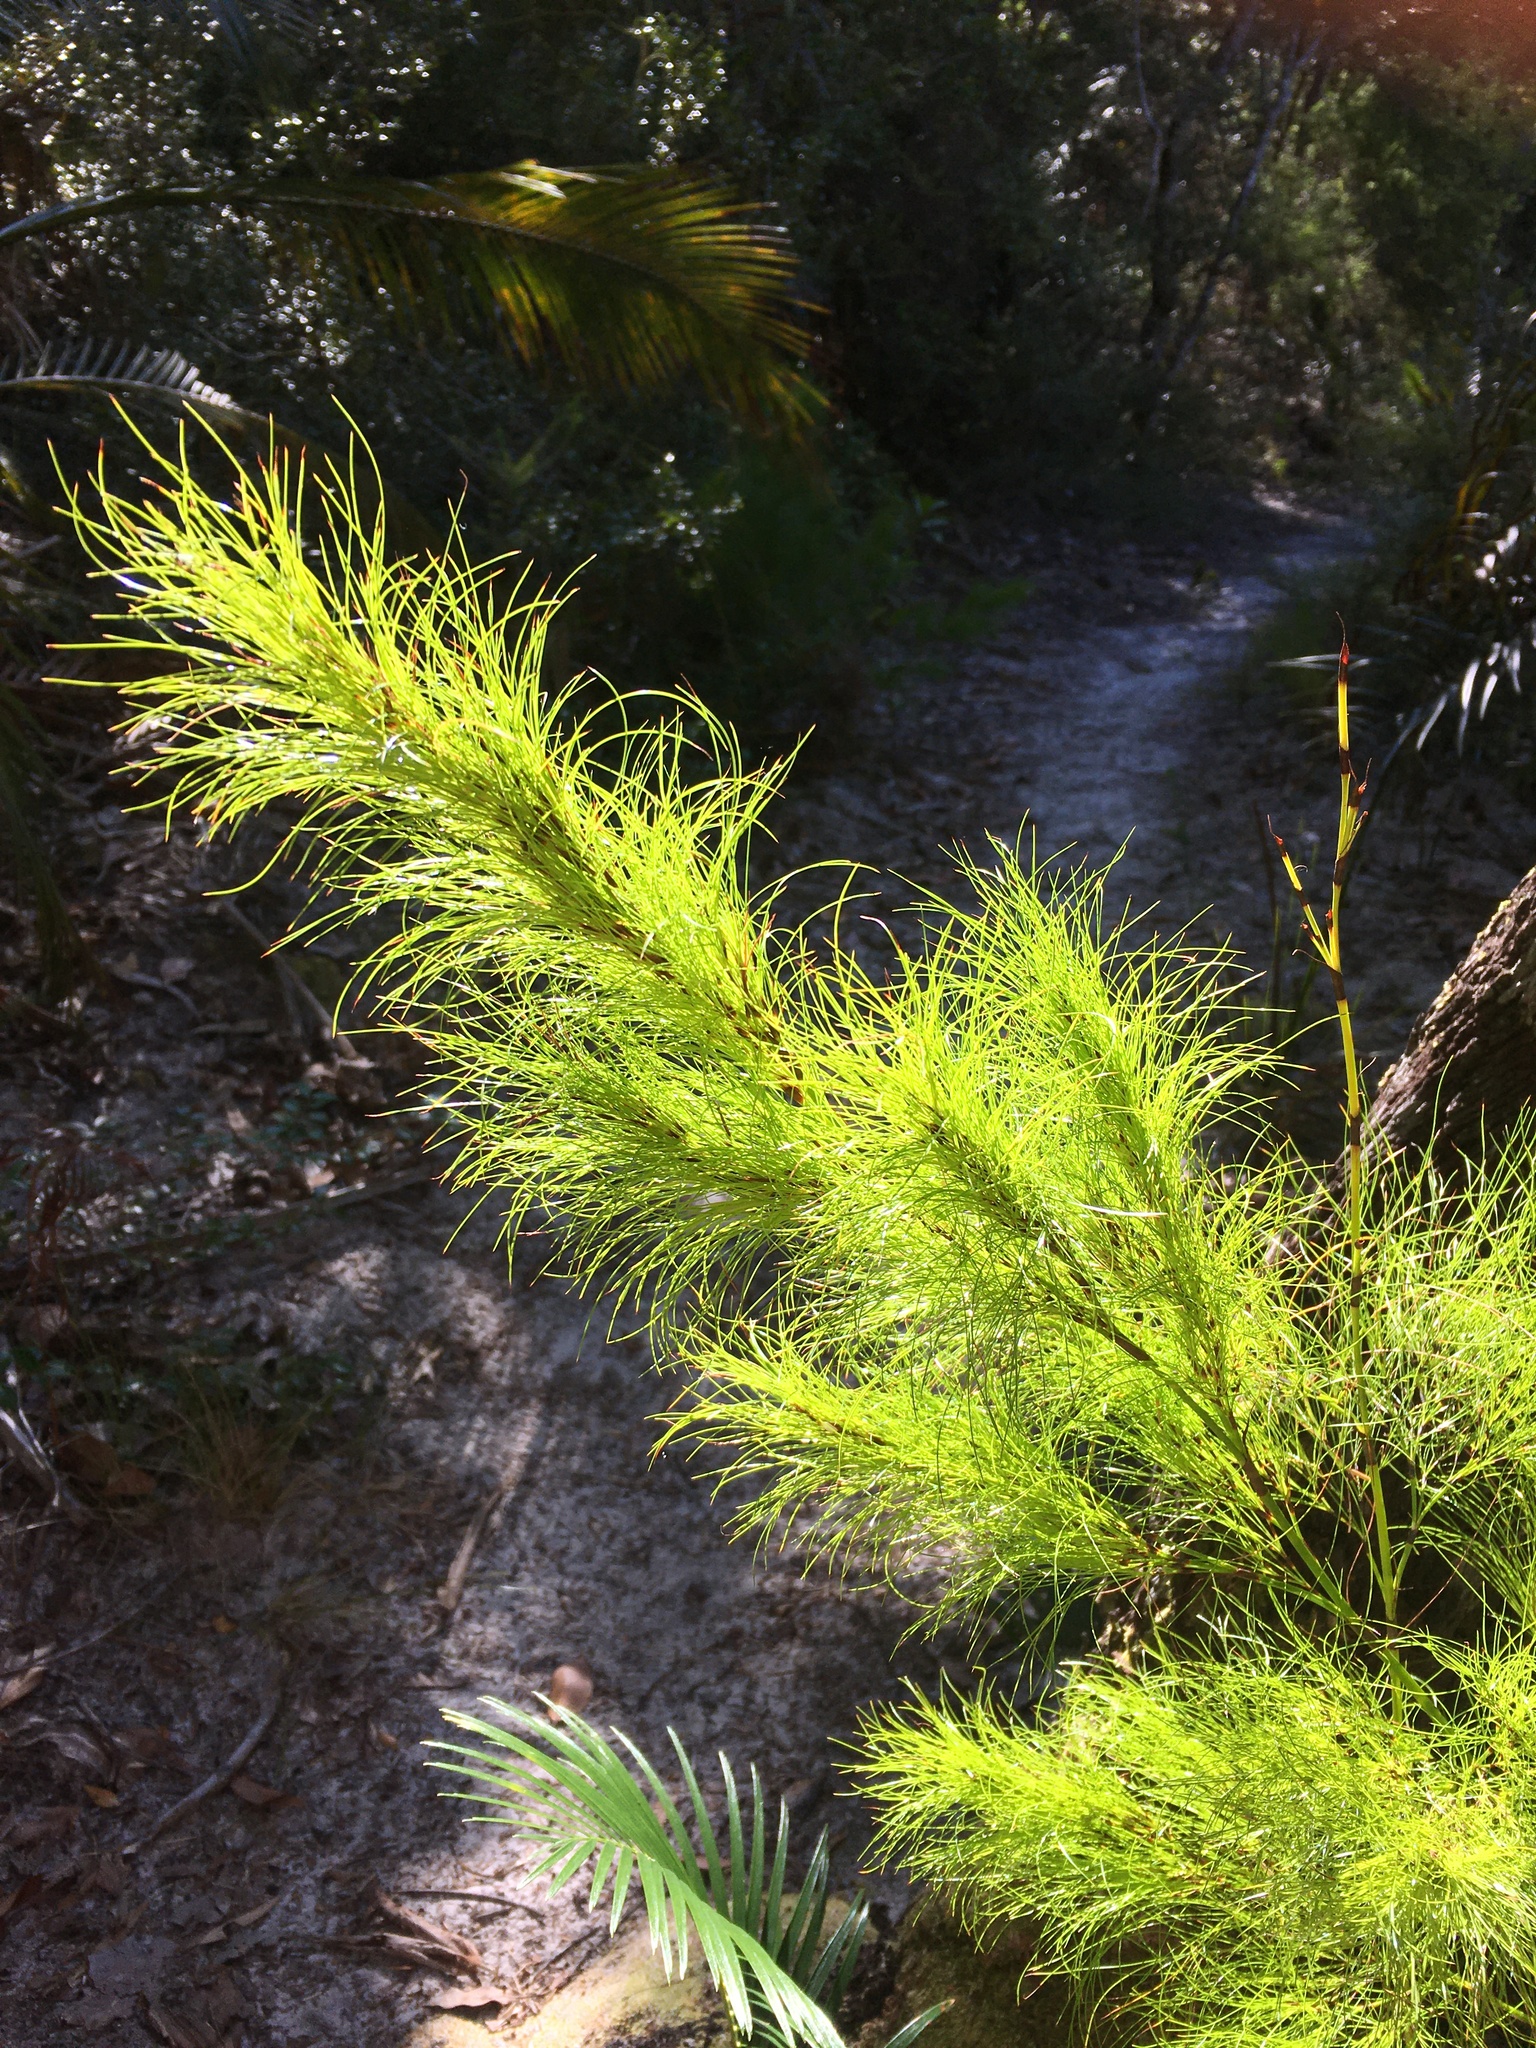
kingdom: Plantae
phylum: Tracheophyta
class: Liliopsida
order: Poales
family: Cyperaceae
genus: Caustis
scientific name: Caustis blakei
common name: Foxtail-fern
